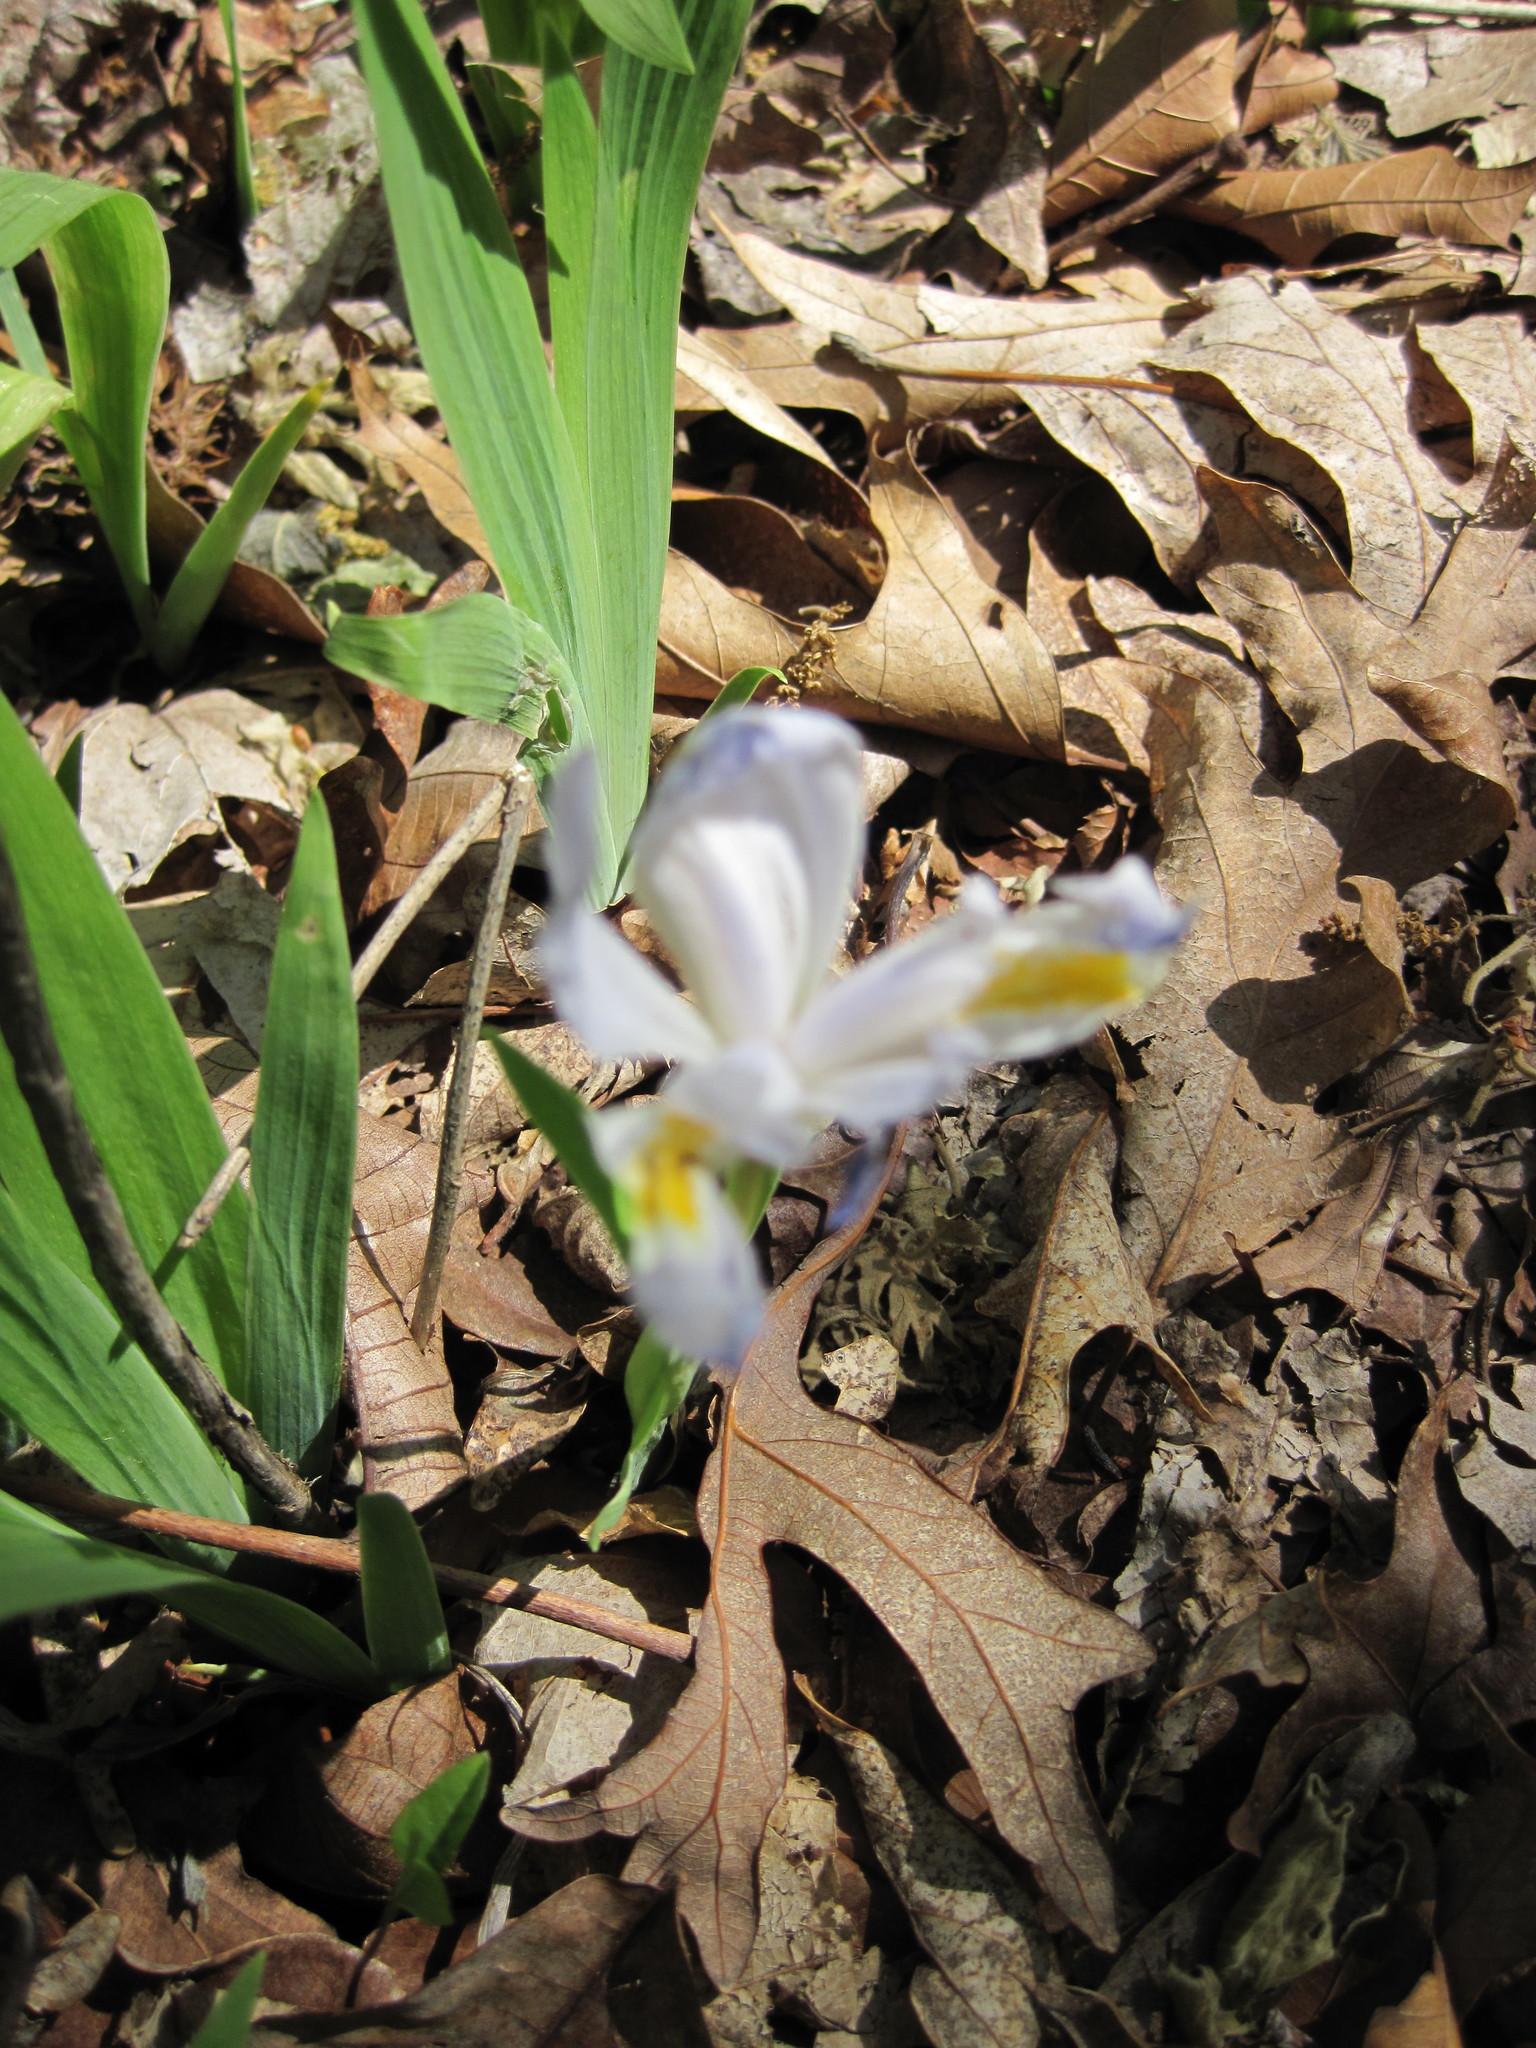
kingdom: Plantae
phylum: Tracheophyta
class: Liliopsida
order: Asparagales
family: Iridaceae
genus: Iris
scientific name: Iris cristata
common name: Crested iris
